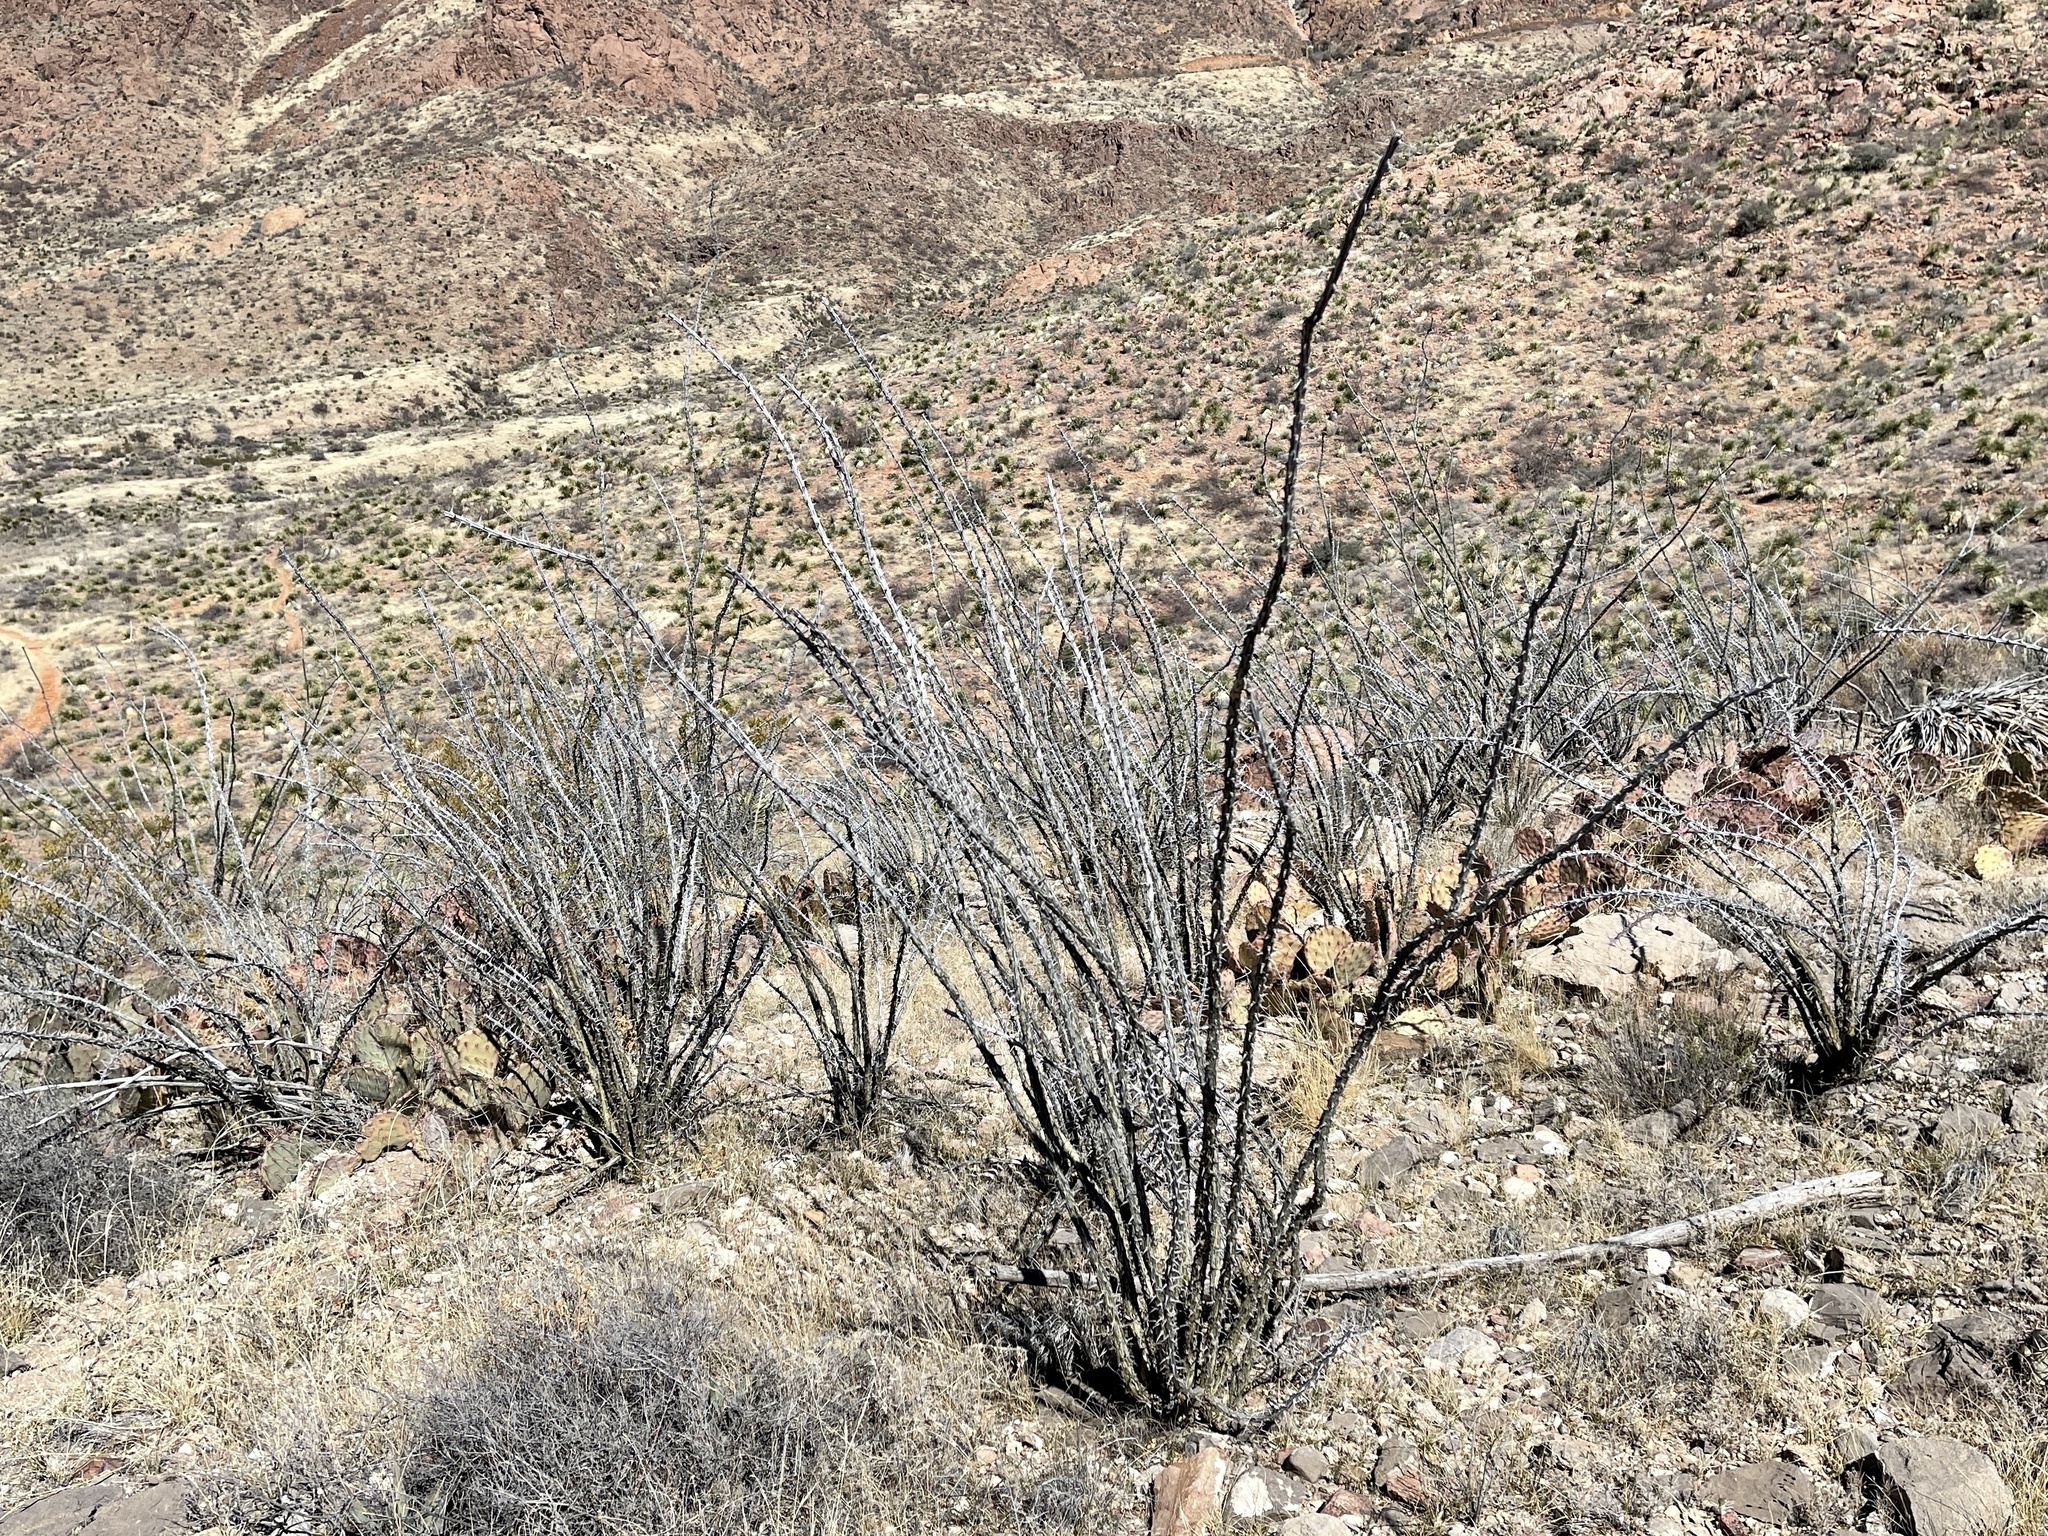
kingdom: Plantae
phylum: Tracheophyta
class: Magnoliopsida
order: Ericales
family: Fouquieriaceae
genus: Fouquieria
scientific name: Fouquieria splendens
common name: Vine-cactus
